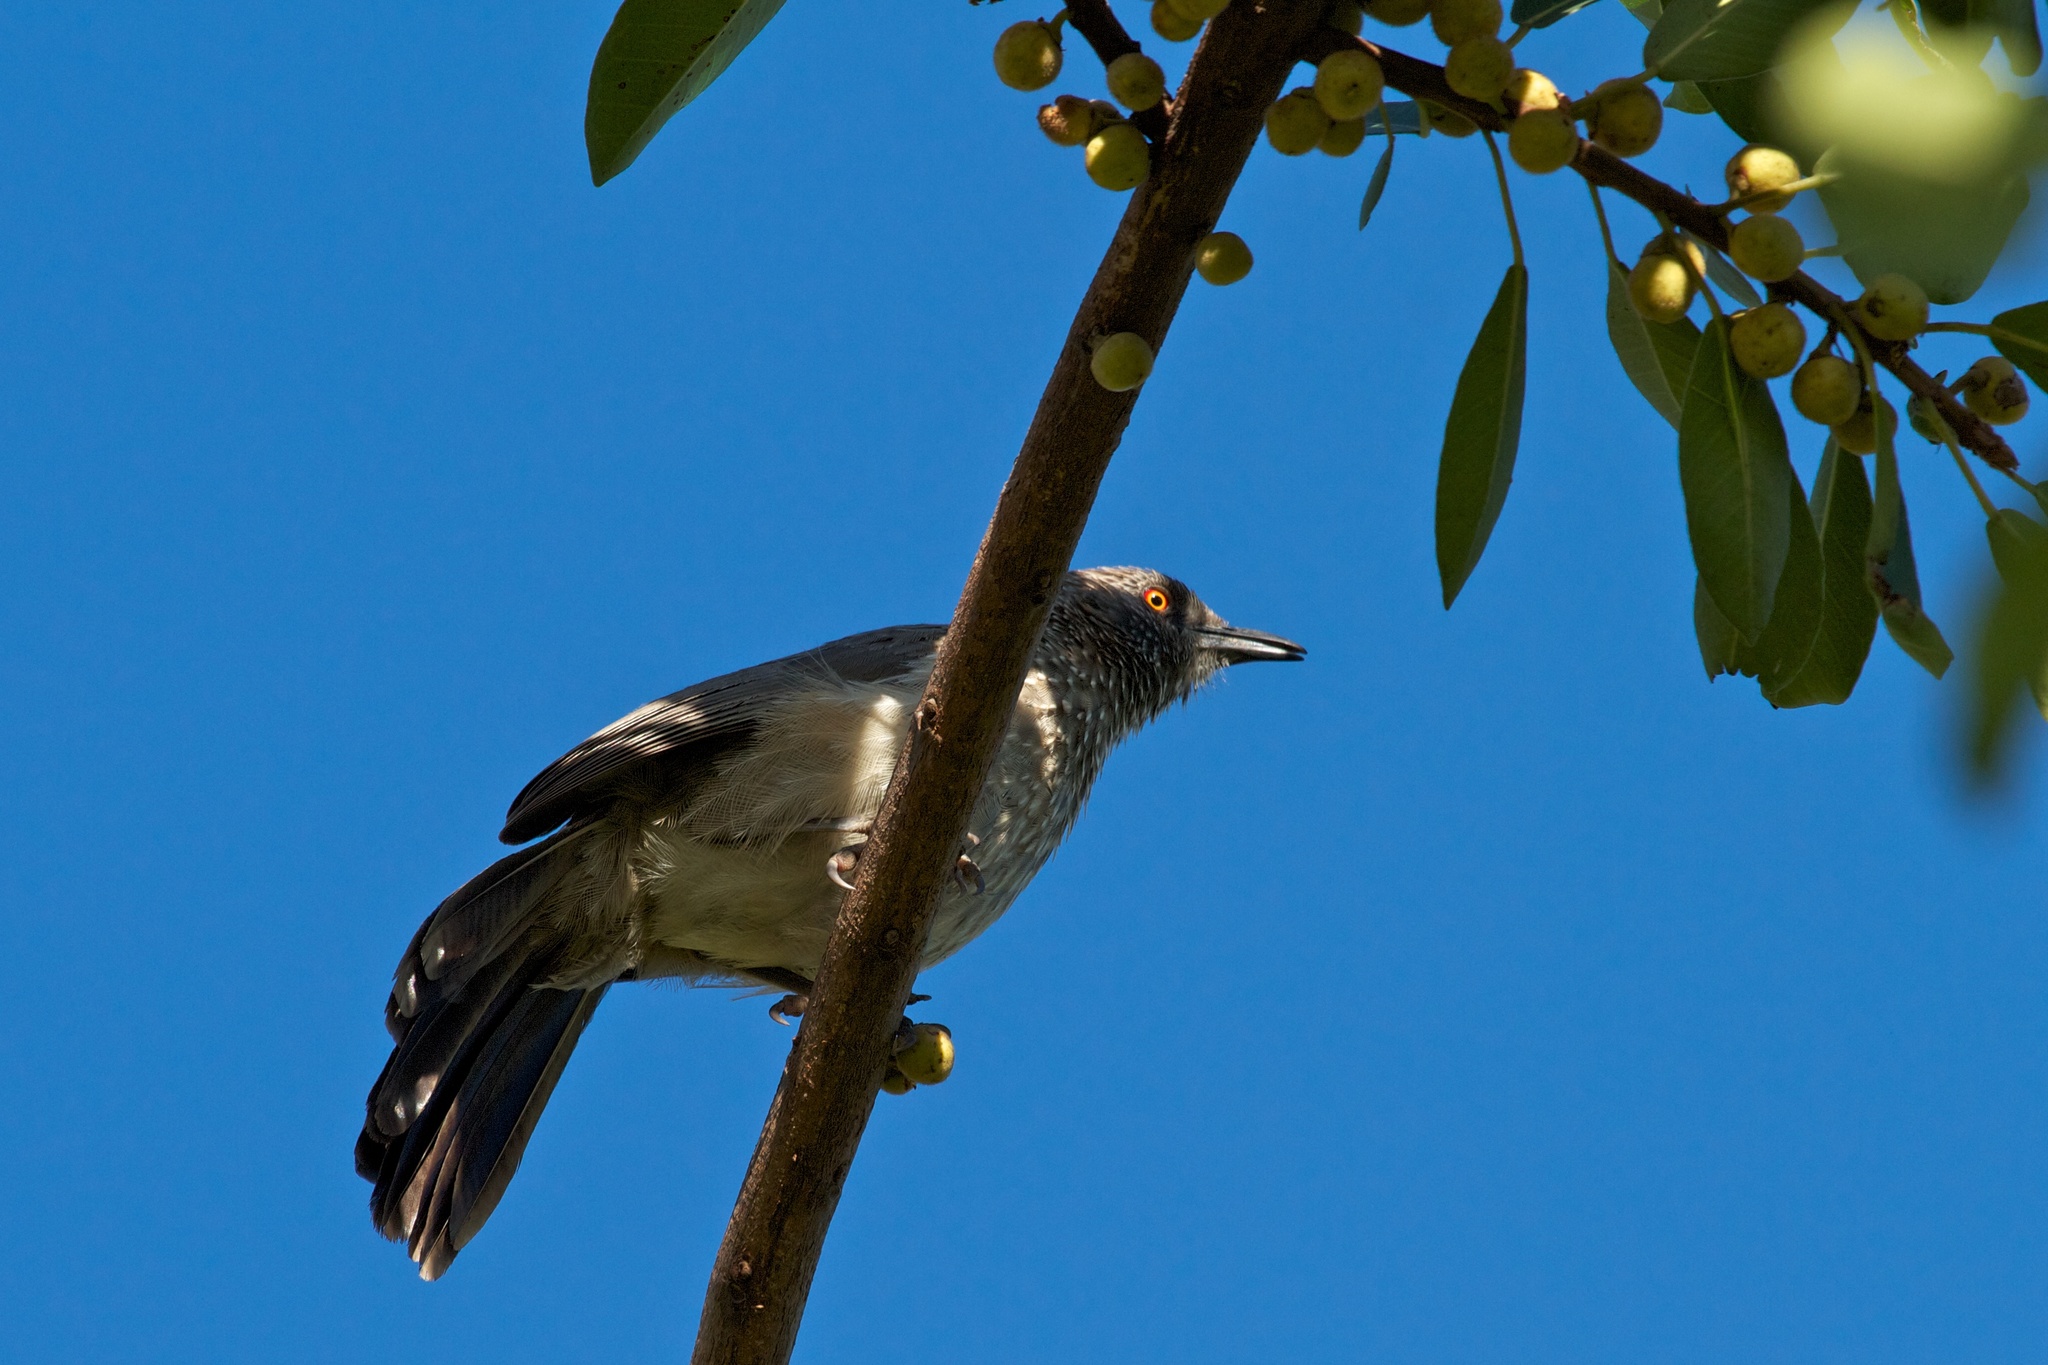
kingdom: Animalia
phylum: Chordata
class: Aves
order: Passeriformes
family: Leiothrichidae
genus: Turdoides
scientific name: Turdoides jardineii
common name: Arrow-marked babbler
